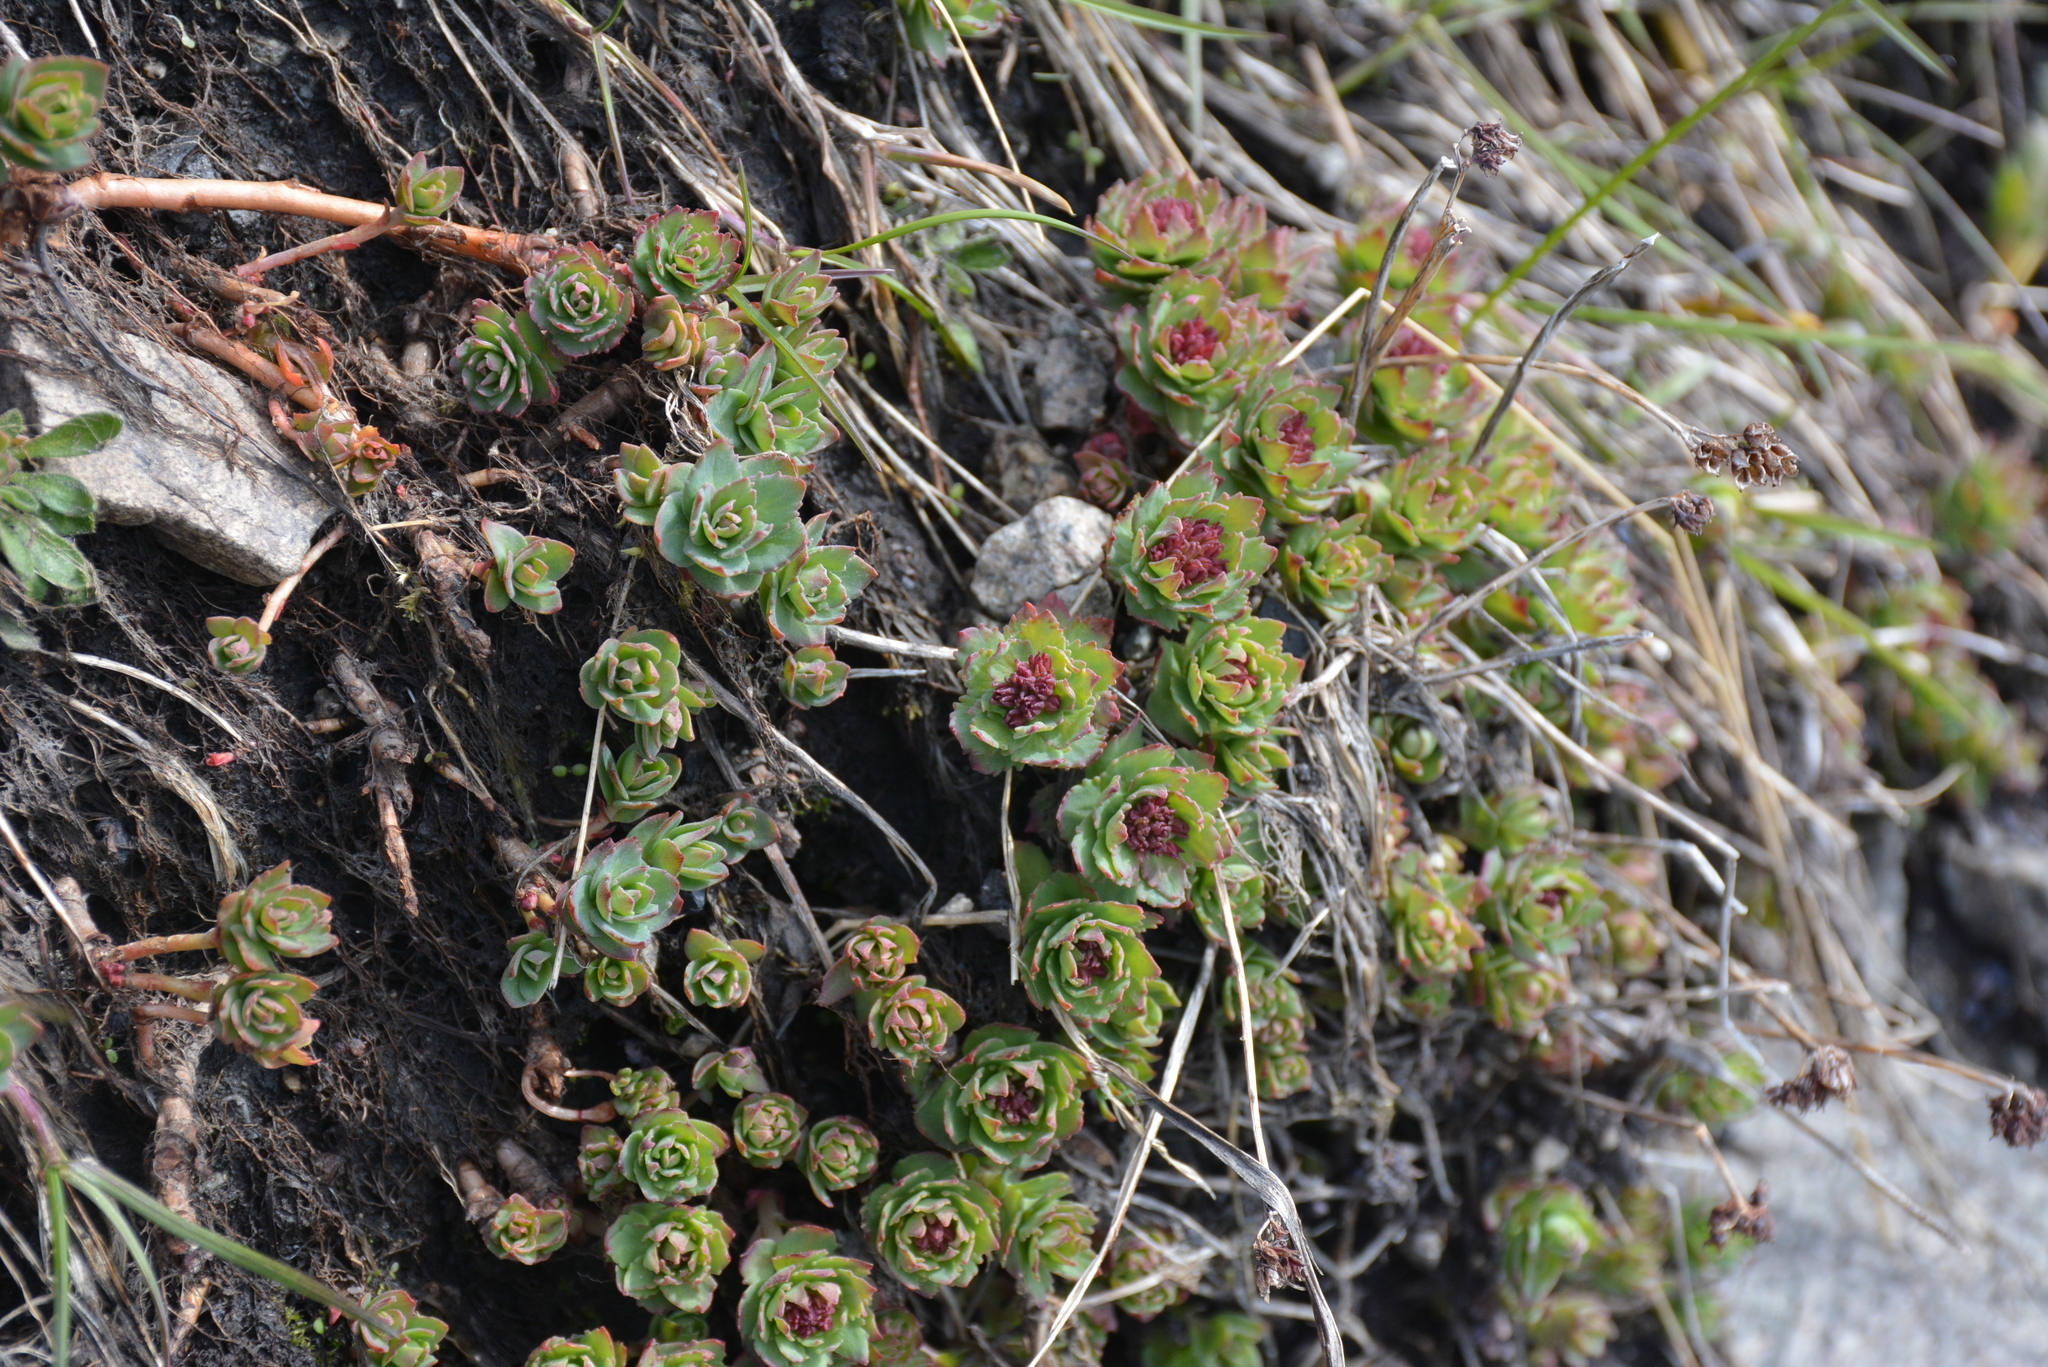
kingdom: Plantae
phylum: Tracheophyta
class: Magnoliopsida
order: Saxifragales
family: Crassulaceae
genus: Rhodiola
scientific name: Rhodiola integrifolia
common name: Western roseroot
